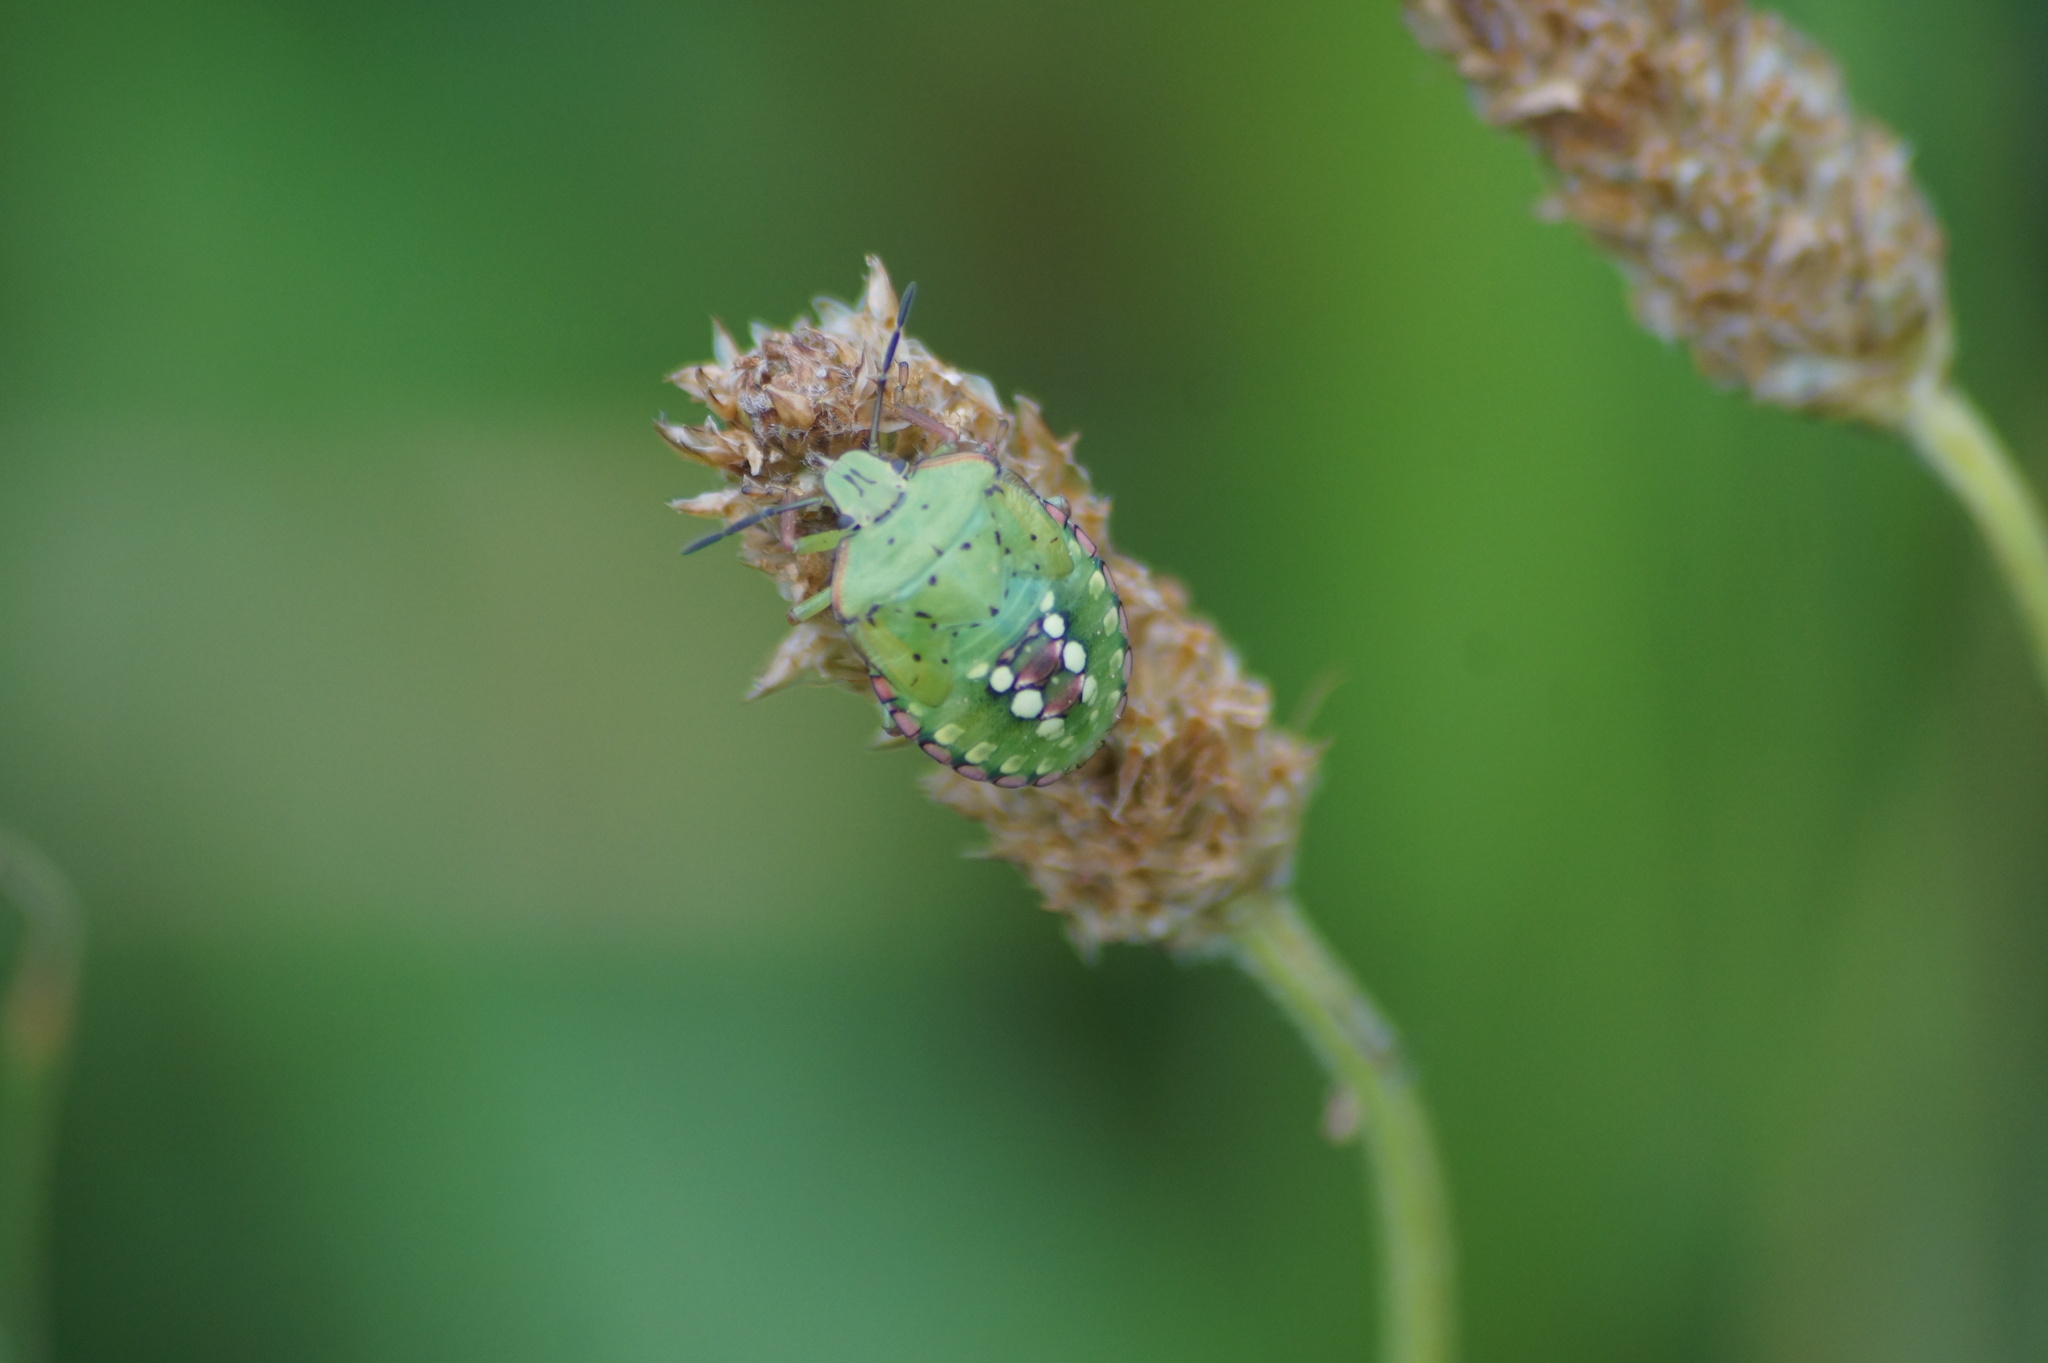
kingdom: Animalia
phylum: Arthropoda
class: Insecta
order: Hemiptera
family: Pentatomidae
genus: Nezara
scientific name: Nezara viridula
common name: Southern green stink bug
